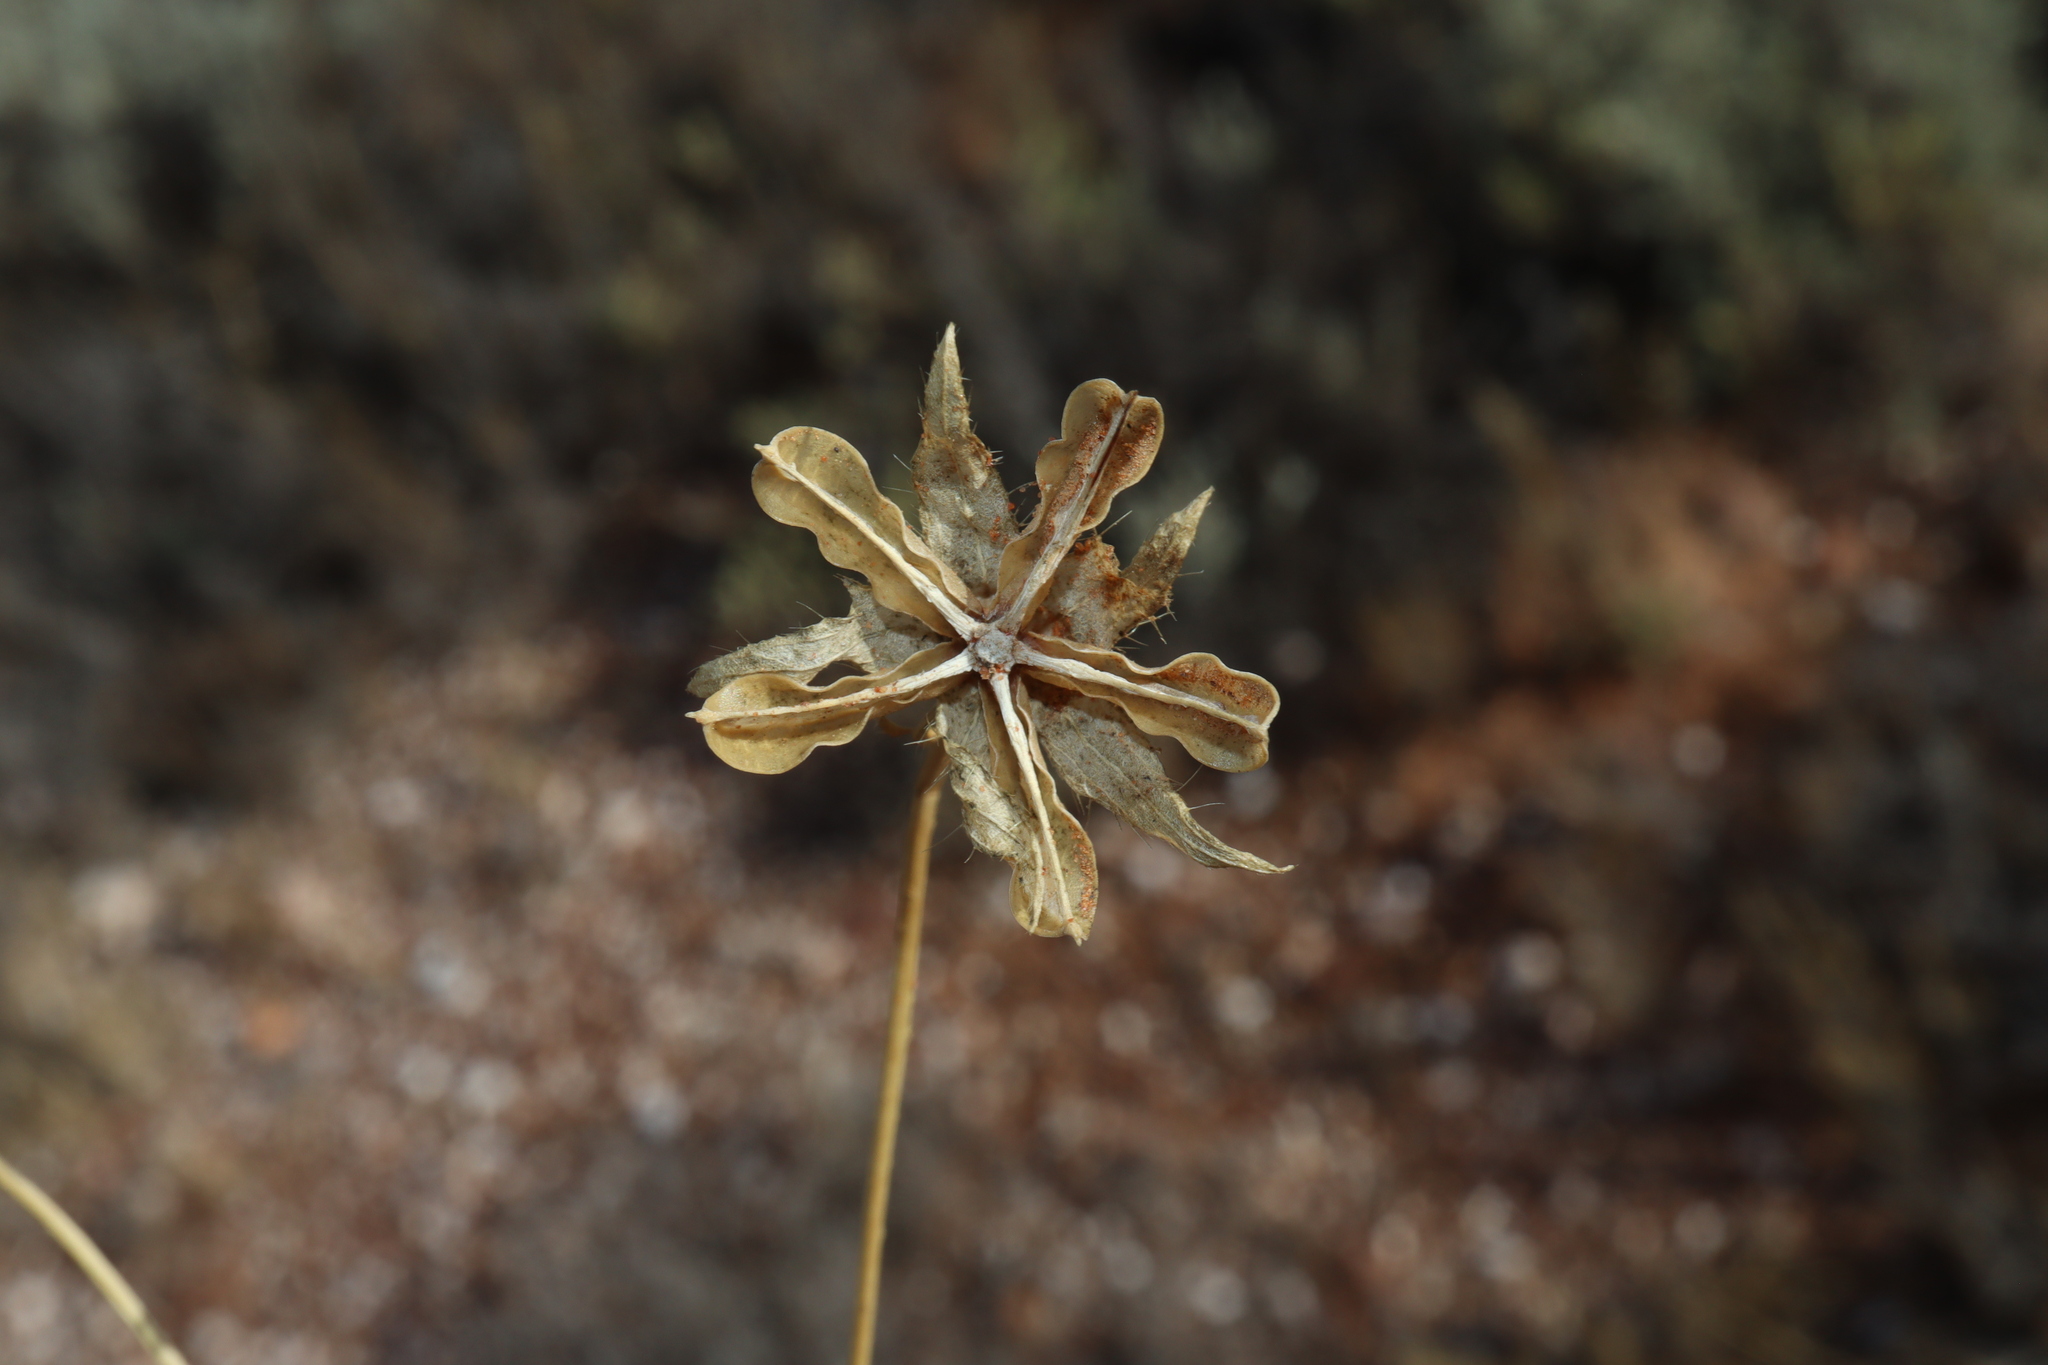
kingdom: Plantae
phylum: Tracheophyta
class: Magnoliopsida
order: Malvales
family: Malvaceae
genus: Hibiscus
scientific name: Hibiscus brachysiphonius
